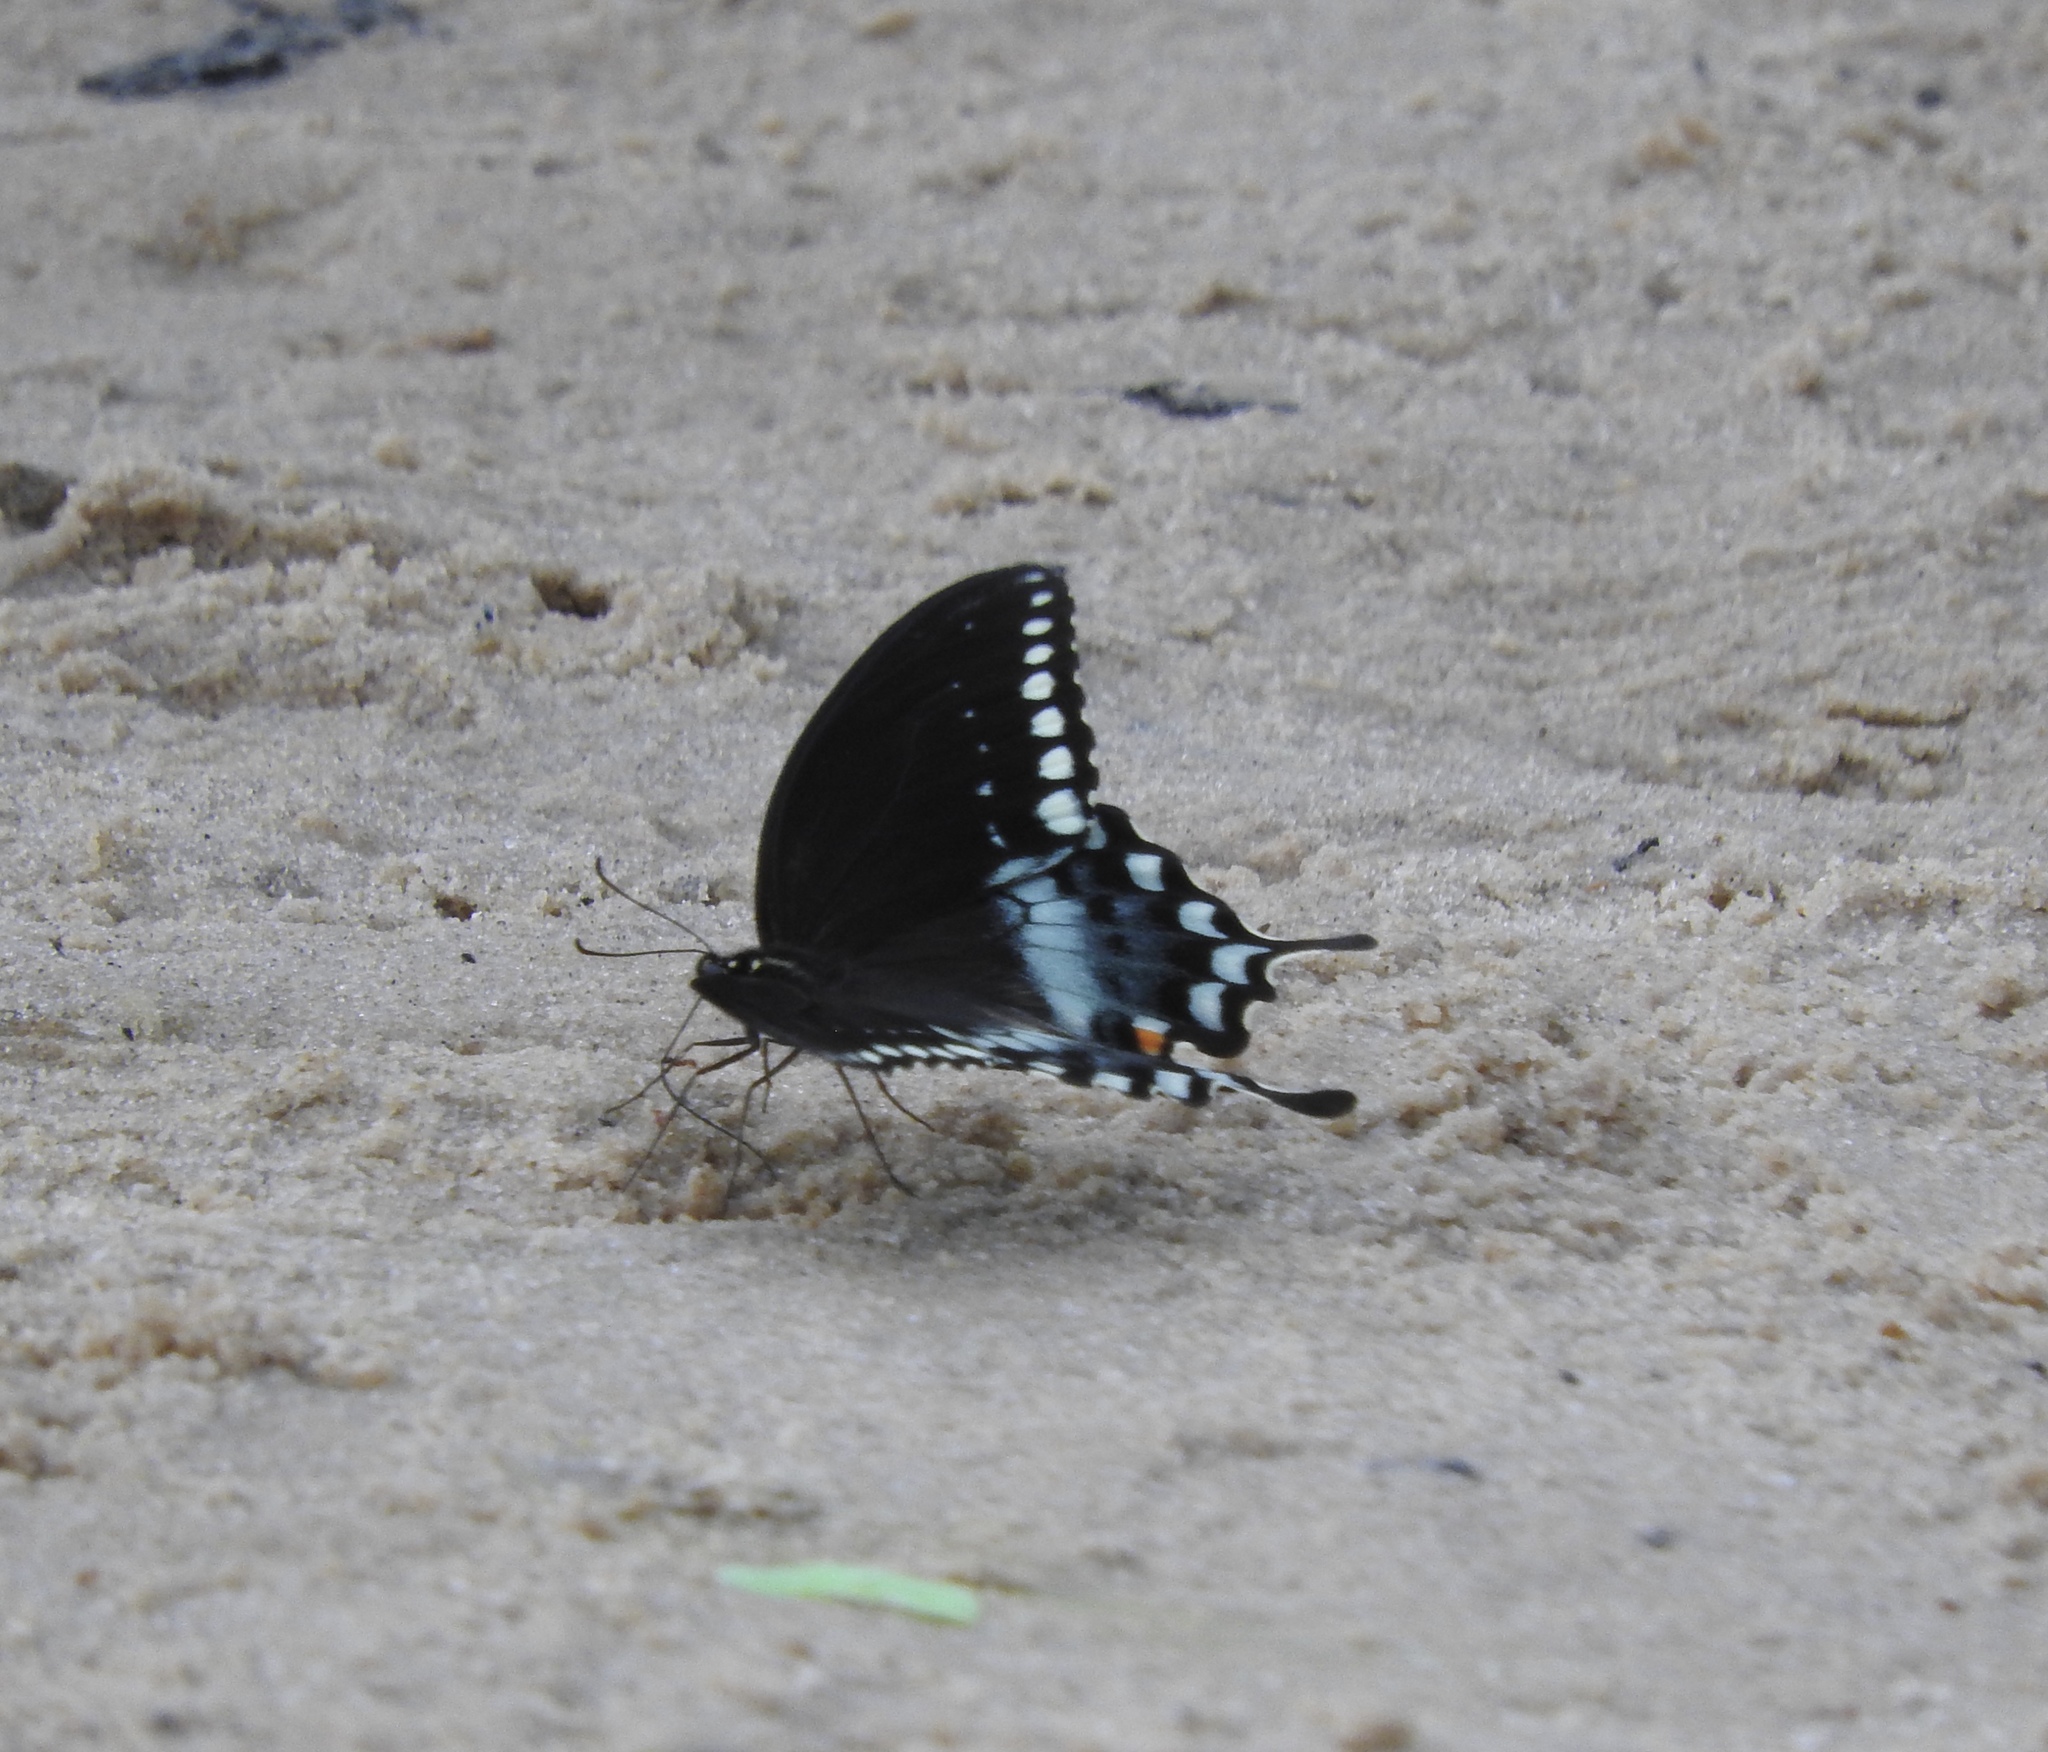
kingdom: Animalia
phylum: Arthropoda
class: Insecta
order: Lepidoptera
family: Papilionidae
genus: Papilio
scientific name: Papilio troilus
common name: Spicebush swallowtail
